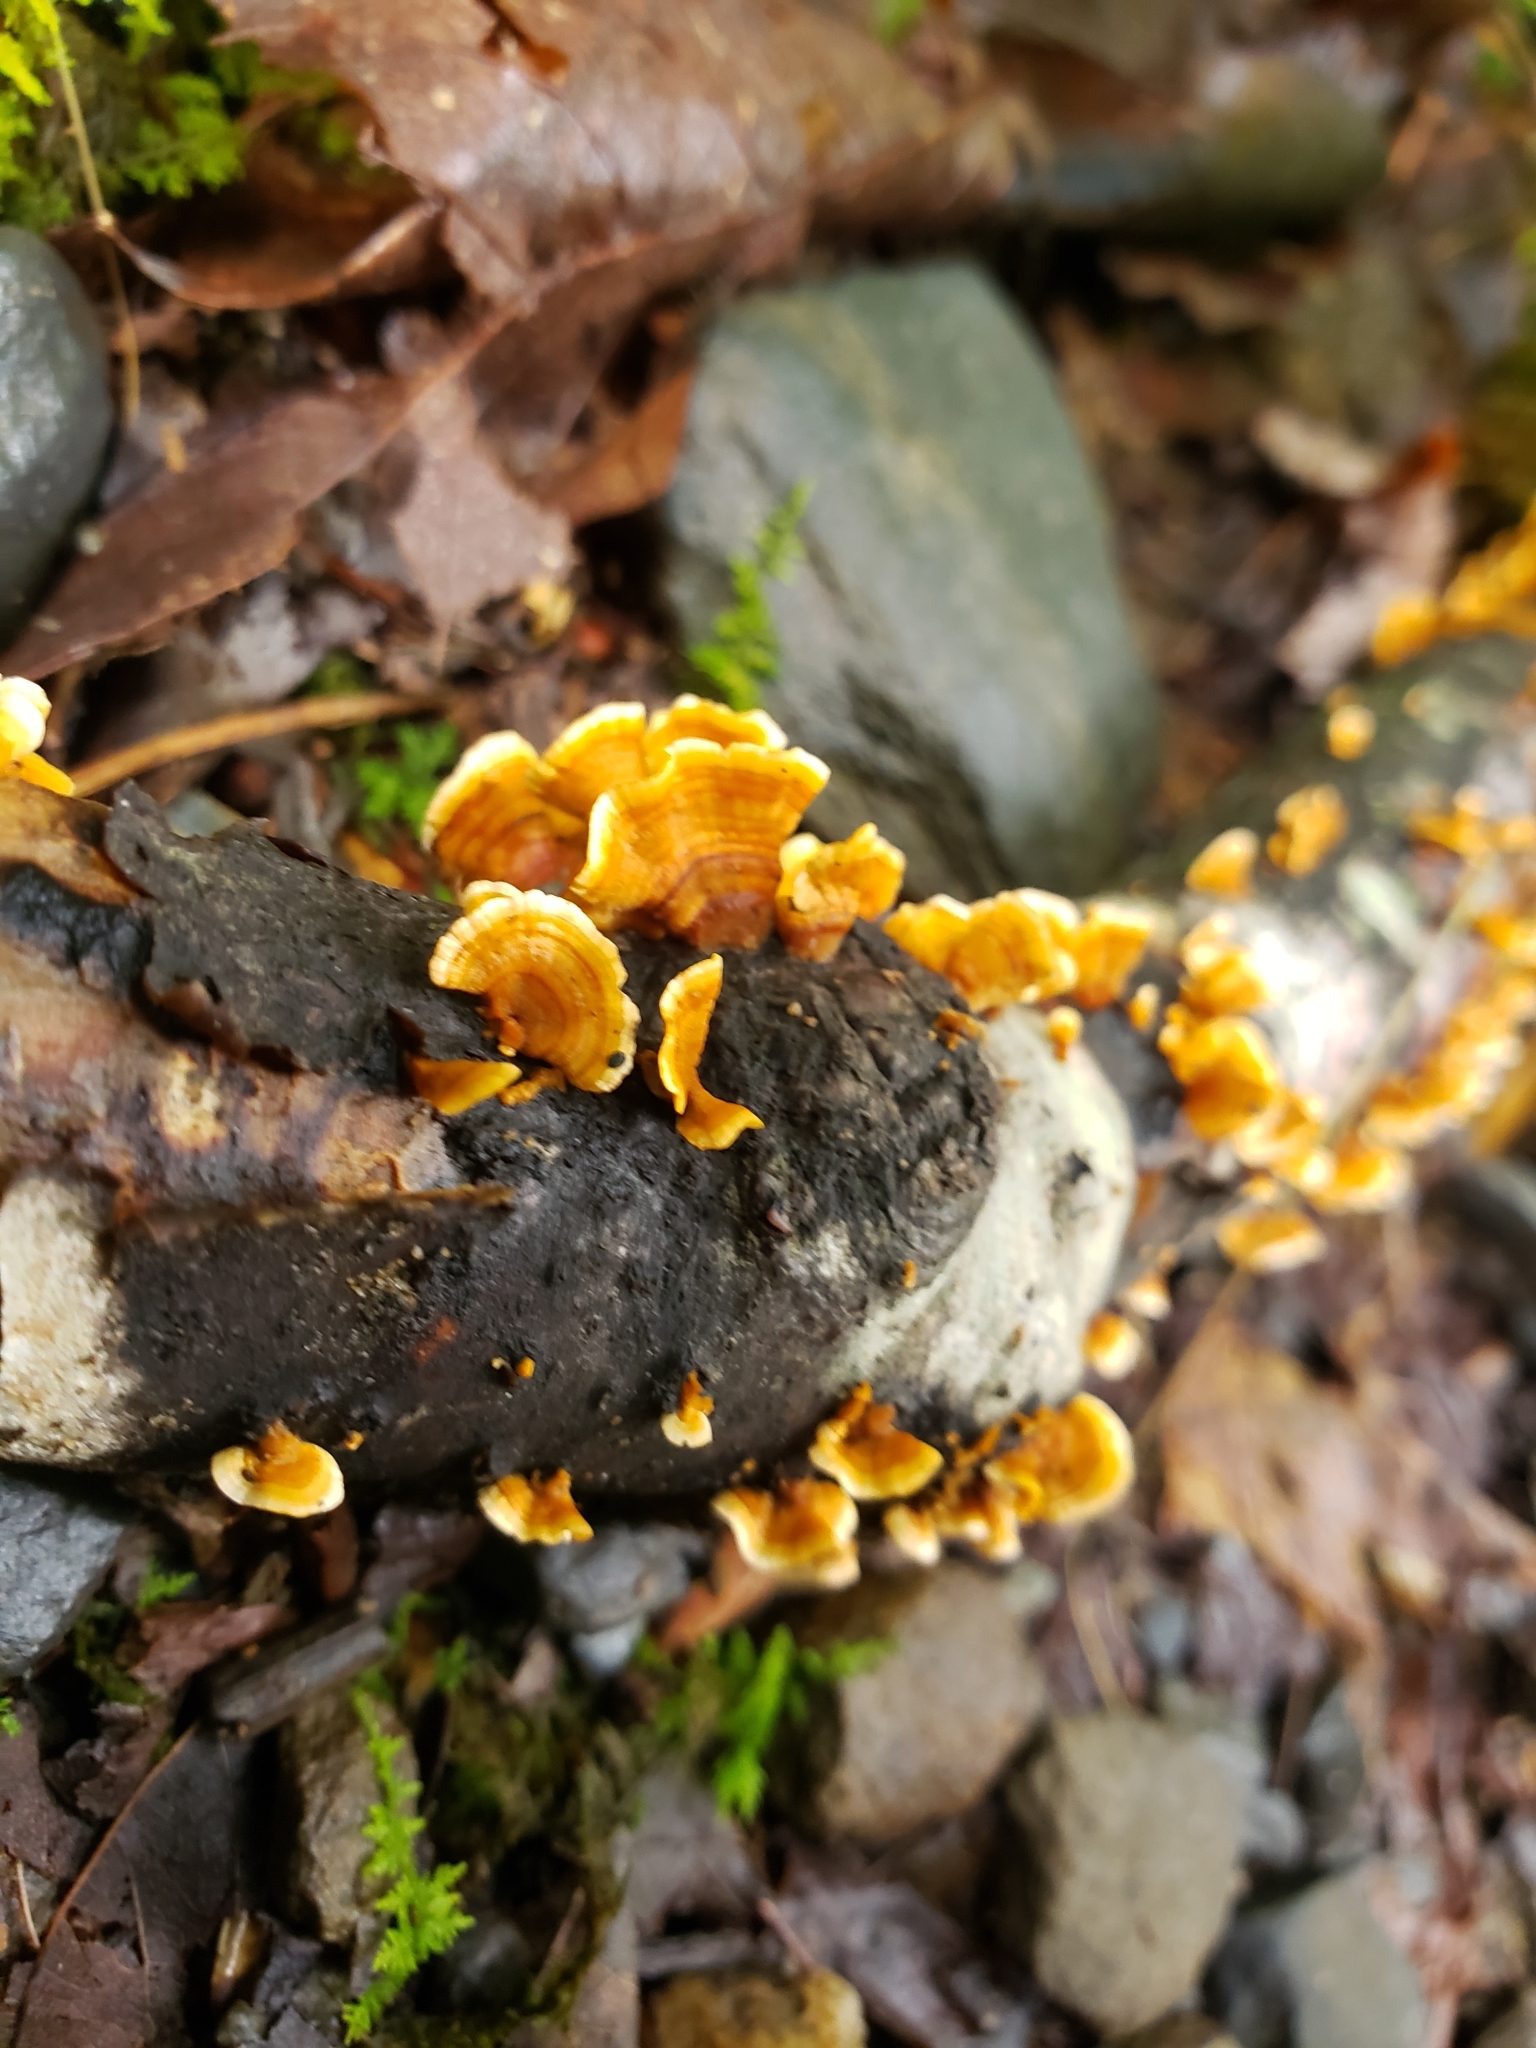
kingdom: Fungi
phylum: Basidiomycota
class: Agaricomycetes
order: Russulales
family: Stereaceae
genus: Stereum
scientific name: Stereum complicatum
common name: Crowded parchment
